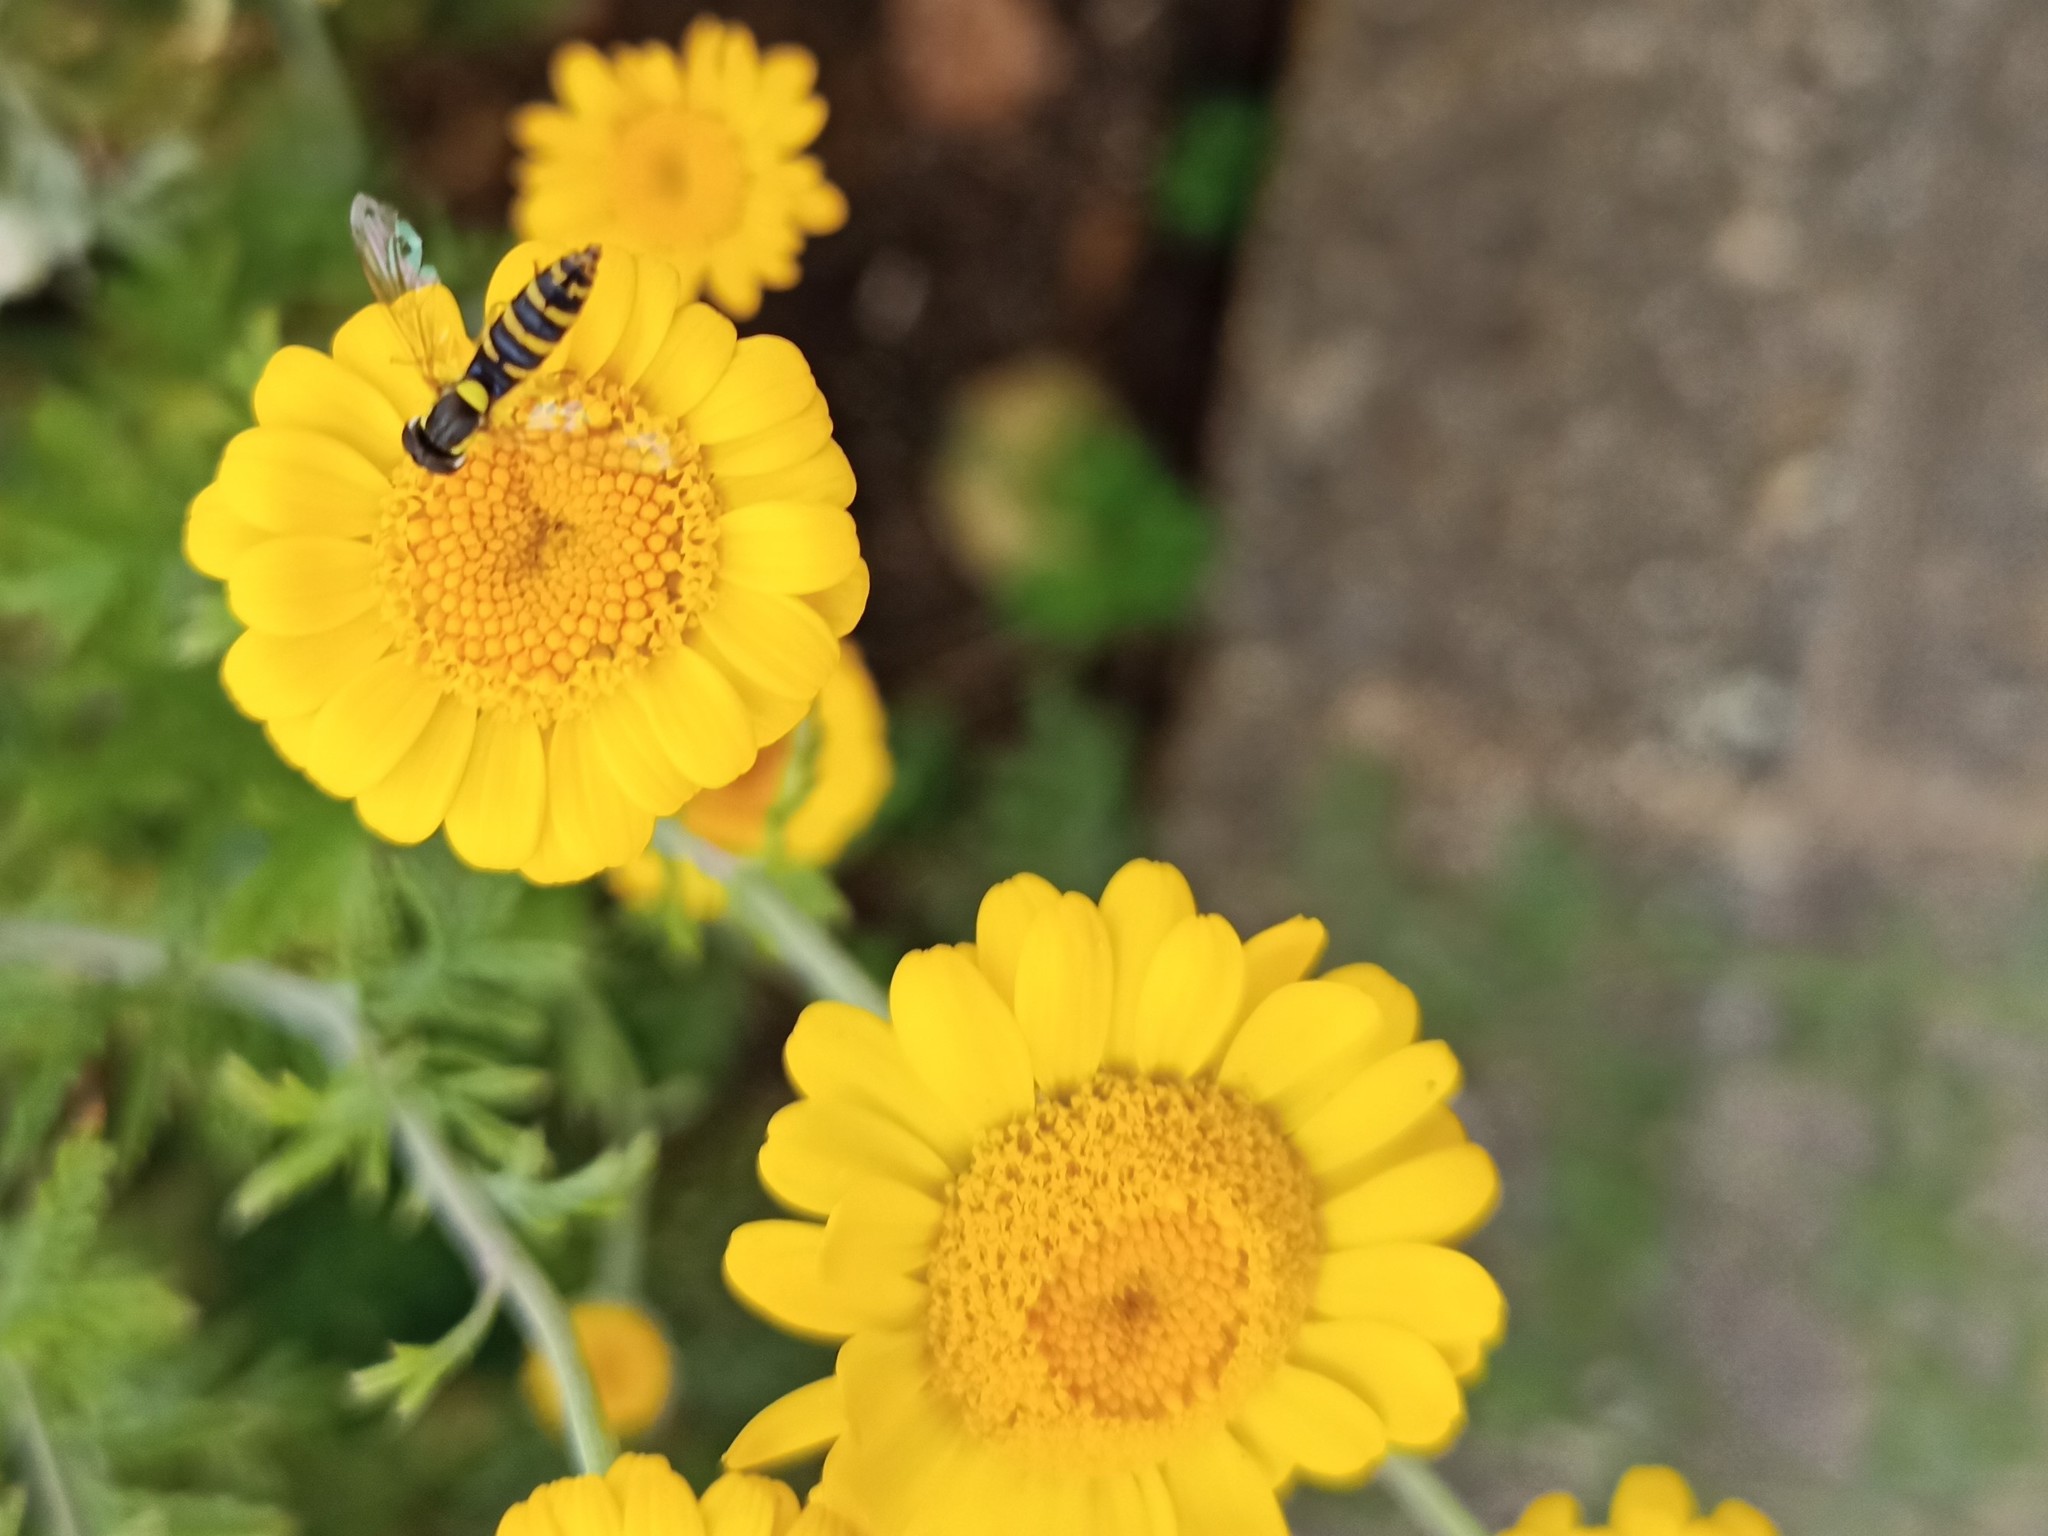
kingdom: Animalia
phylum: Arthropoda
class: Insecta
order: Diptera
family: Syrphidae
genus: Sphaerophoria
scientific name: Sphaerophoria
